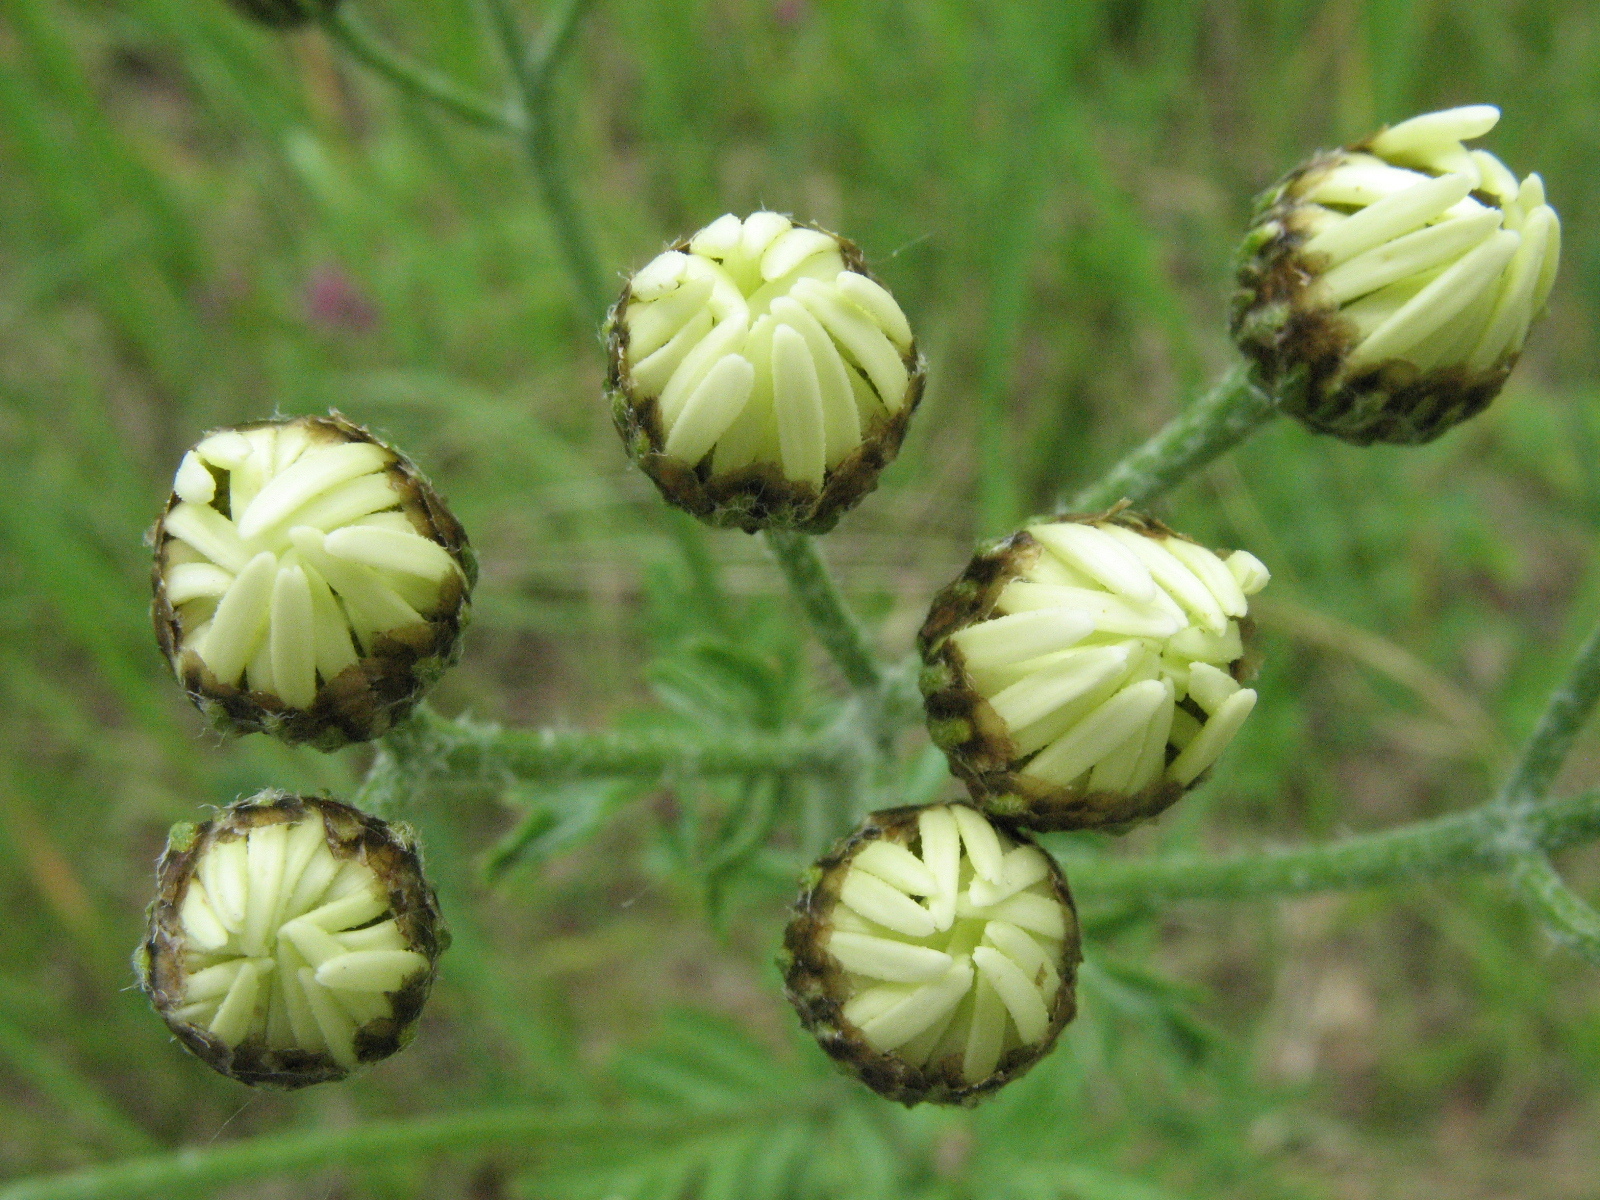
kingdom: Plantae
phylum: Tracheophyta
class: Magnoliopsida
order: Asterales
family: Asteraceae
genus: Tanacetum
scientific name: Tanacetum corymbosum
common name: Scentless feverfew
